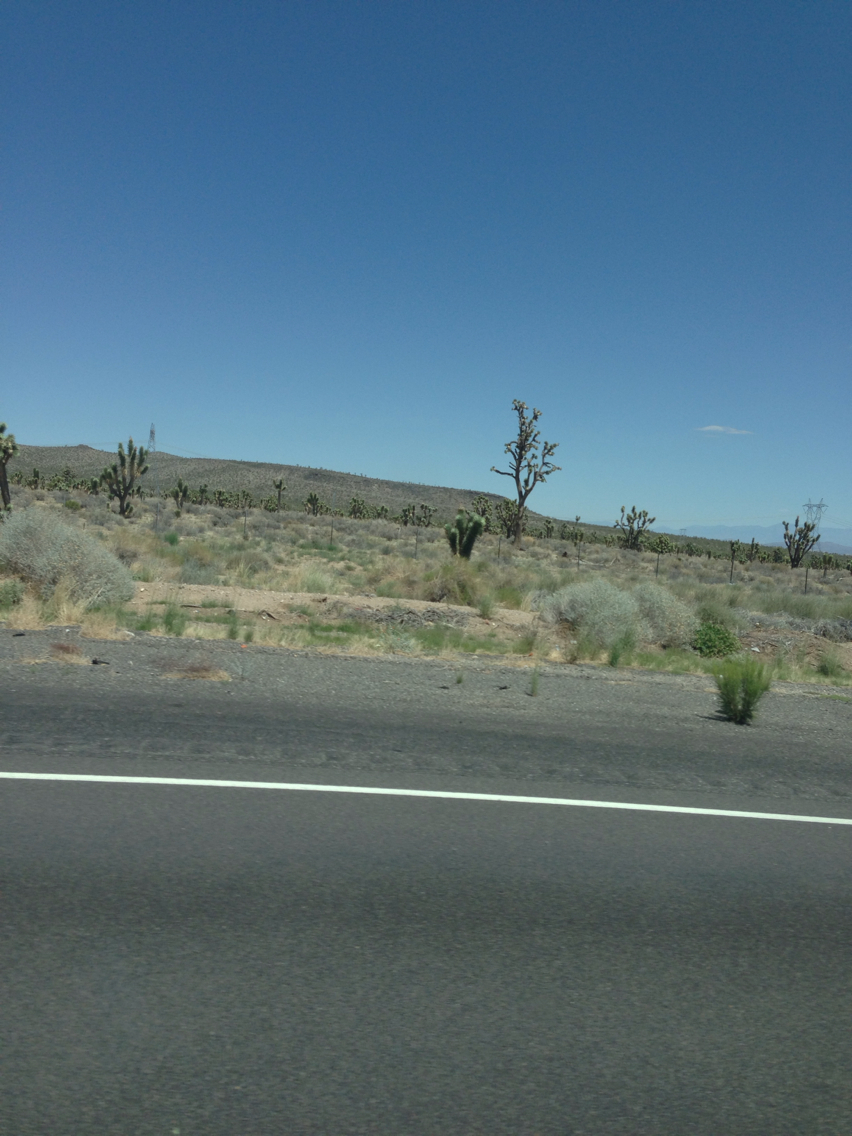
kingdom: Plantae
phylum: Tracheophyta
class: Liliopsida
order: Asparagales
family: Asparagaceae
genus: Yucca
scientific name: Yucca brevifolia
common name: Joshua tree
